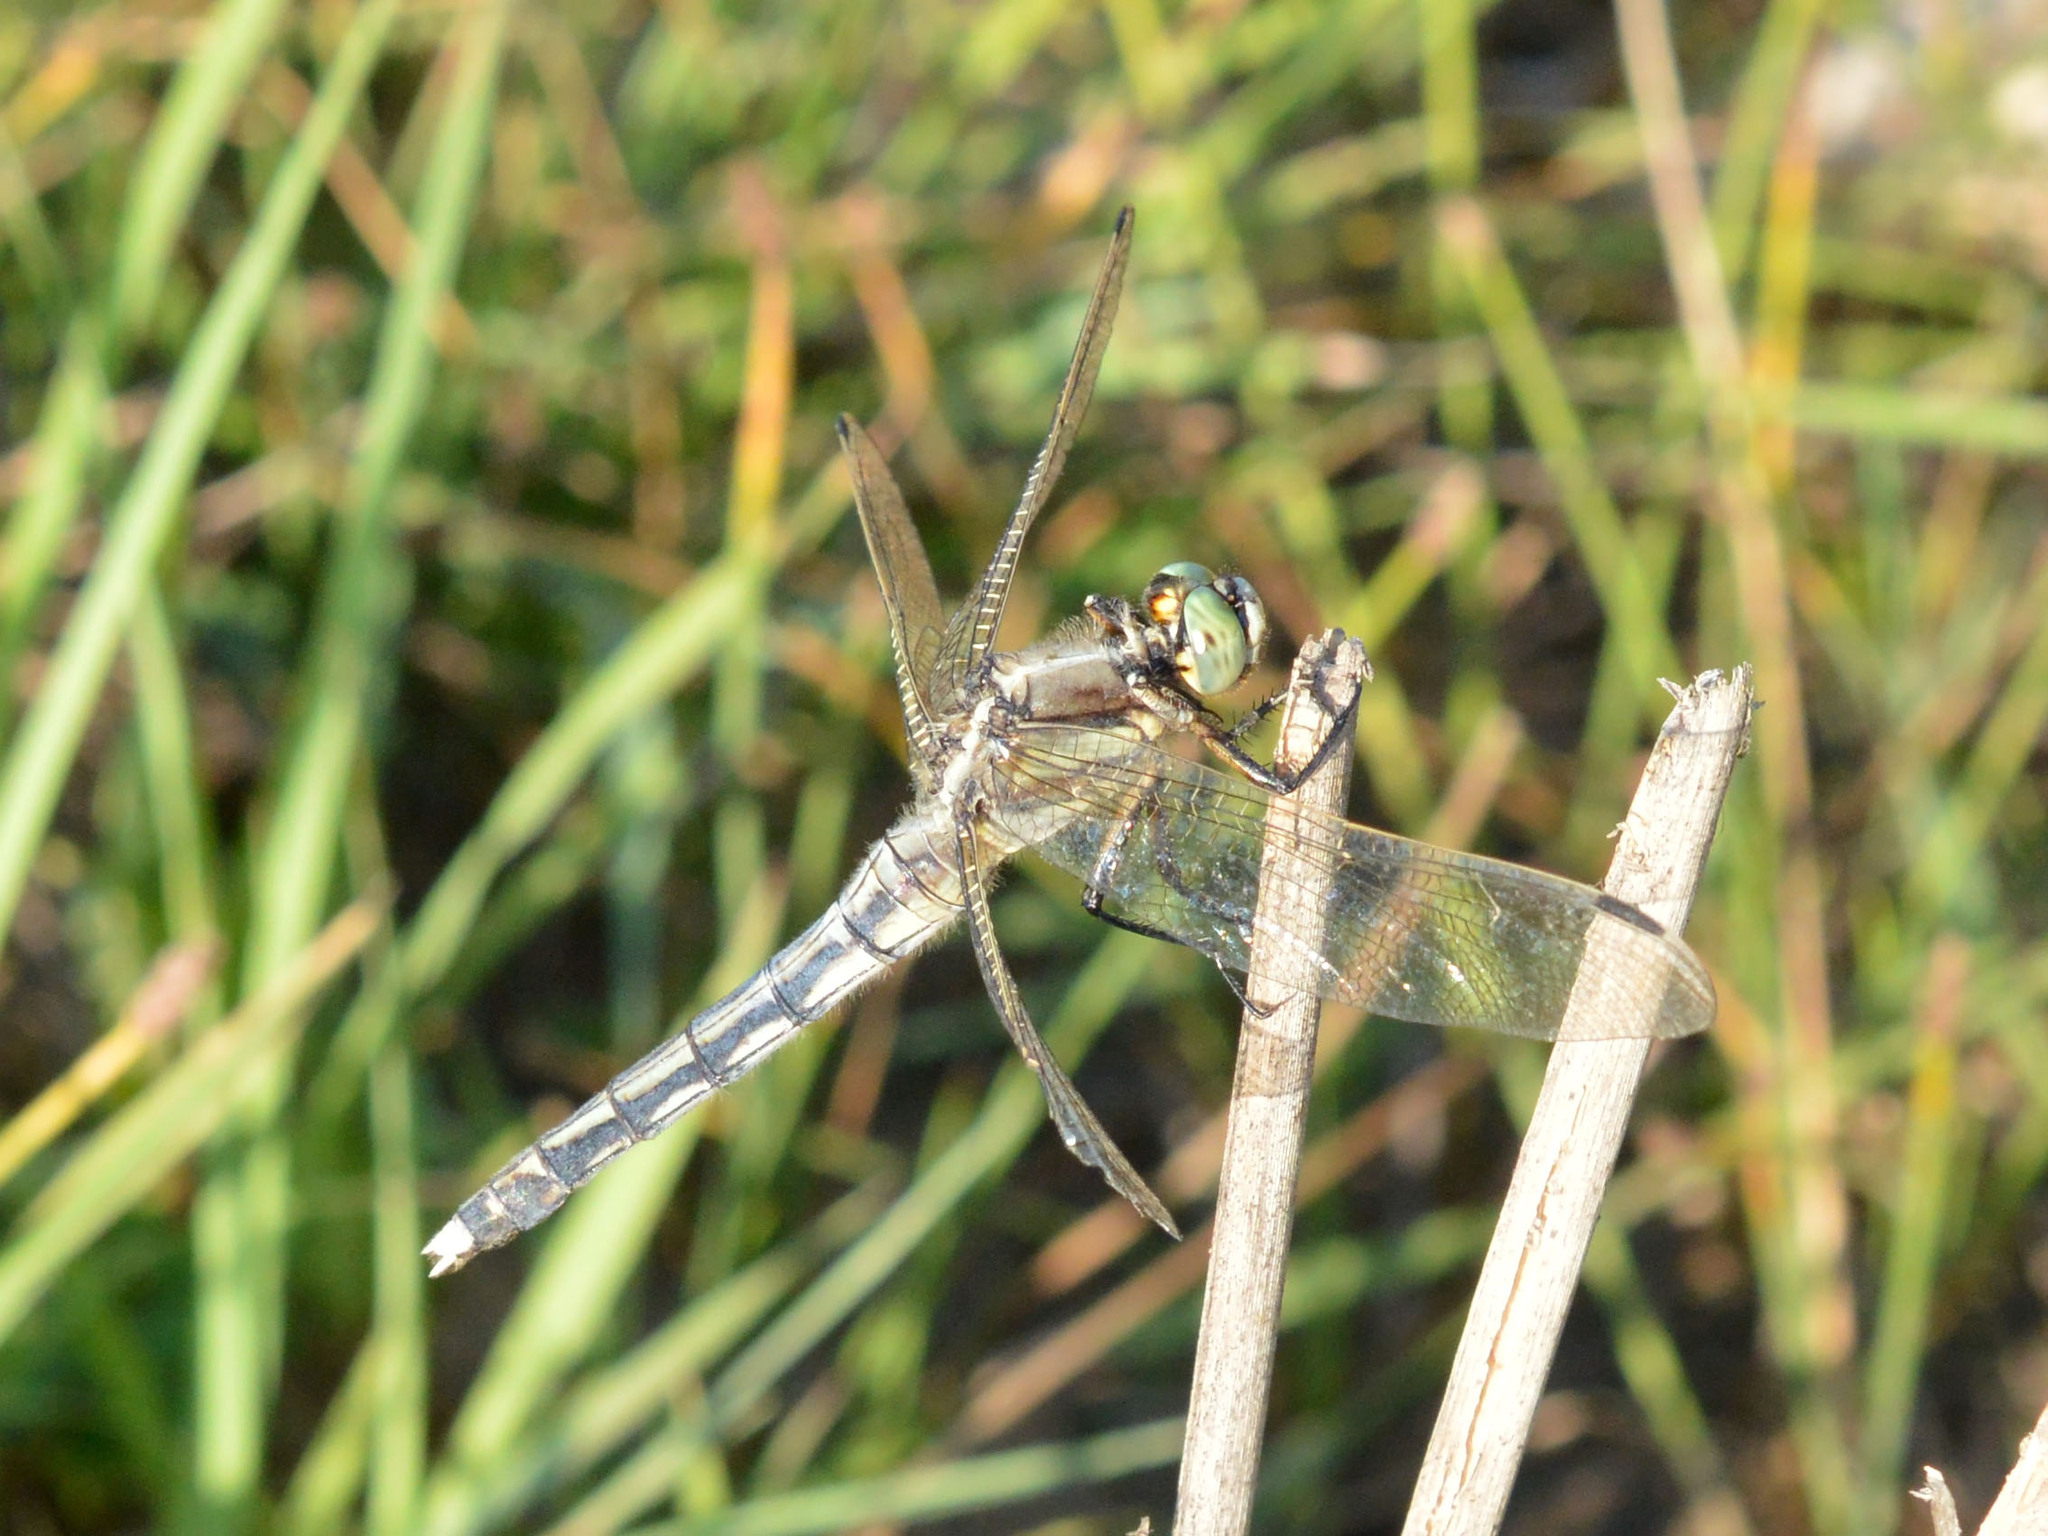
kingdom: Animalia
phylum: Arthropoda
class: Insecta
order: Odonata
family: Libellulidae
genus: Orthetrum
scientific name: Orthetrum albistylum
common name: White-tailed skimmer
